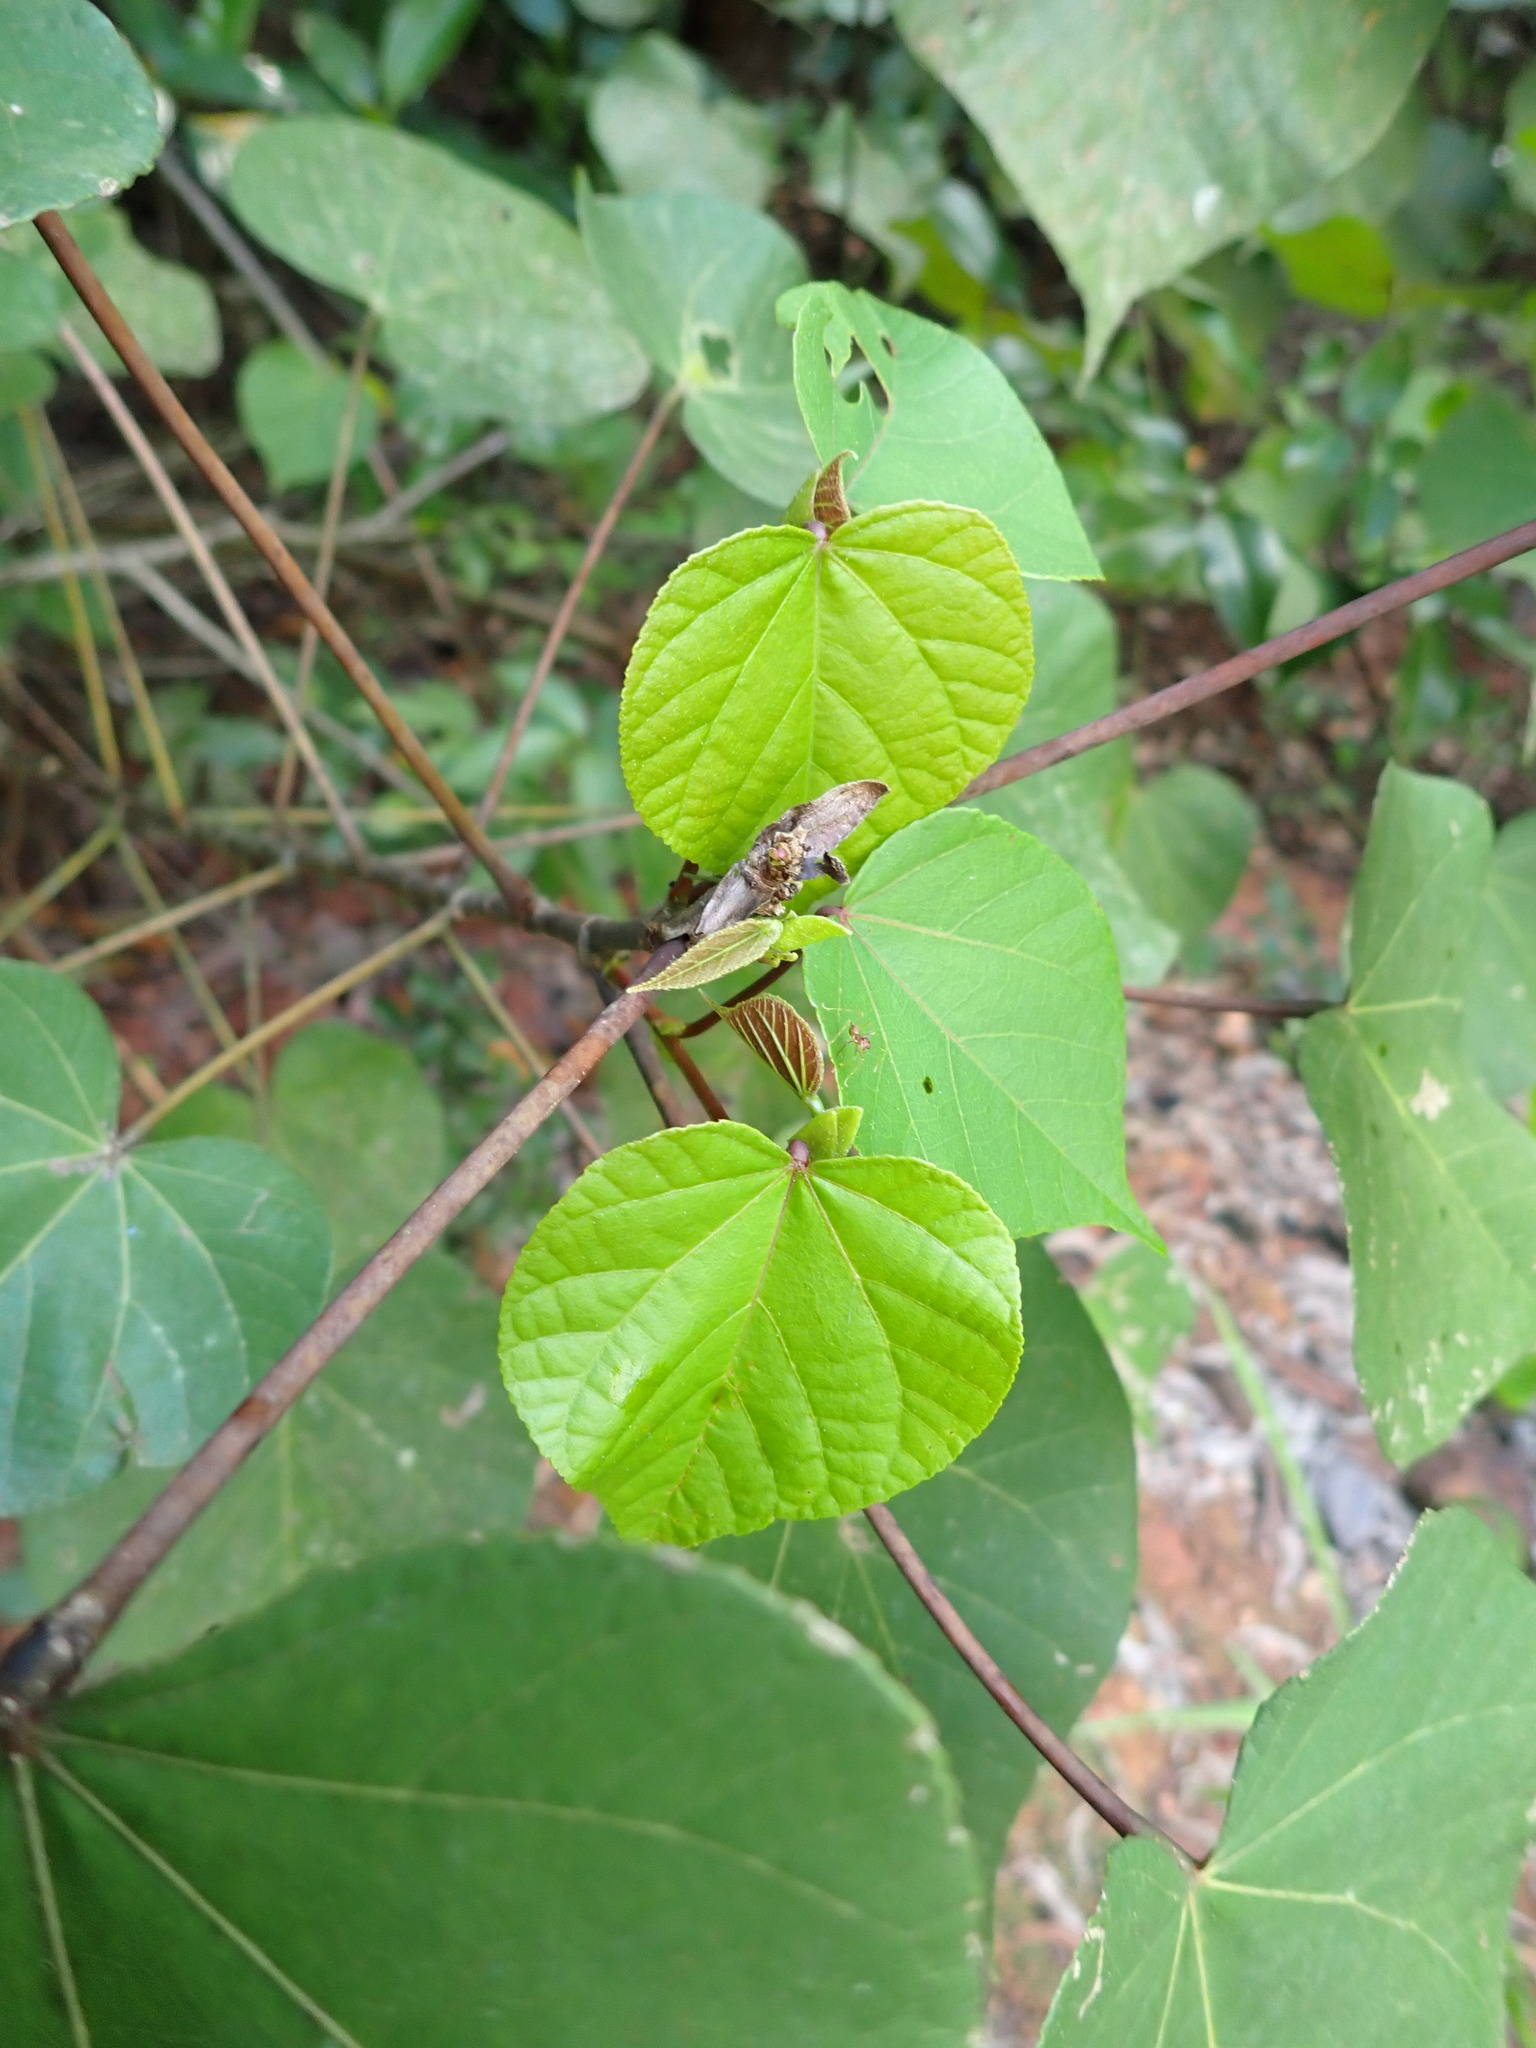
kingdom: Plantae
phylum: Tracheophyta
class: Magnoliopsida
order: Malvales
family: Malvaceae
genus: Talipariti
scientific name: Talipariti tiliaceum
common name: Sea hibiscus
